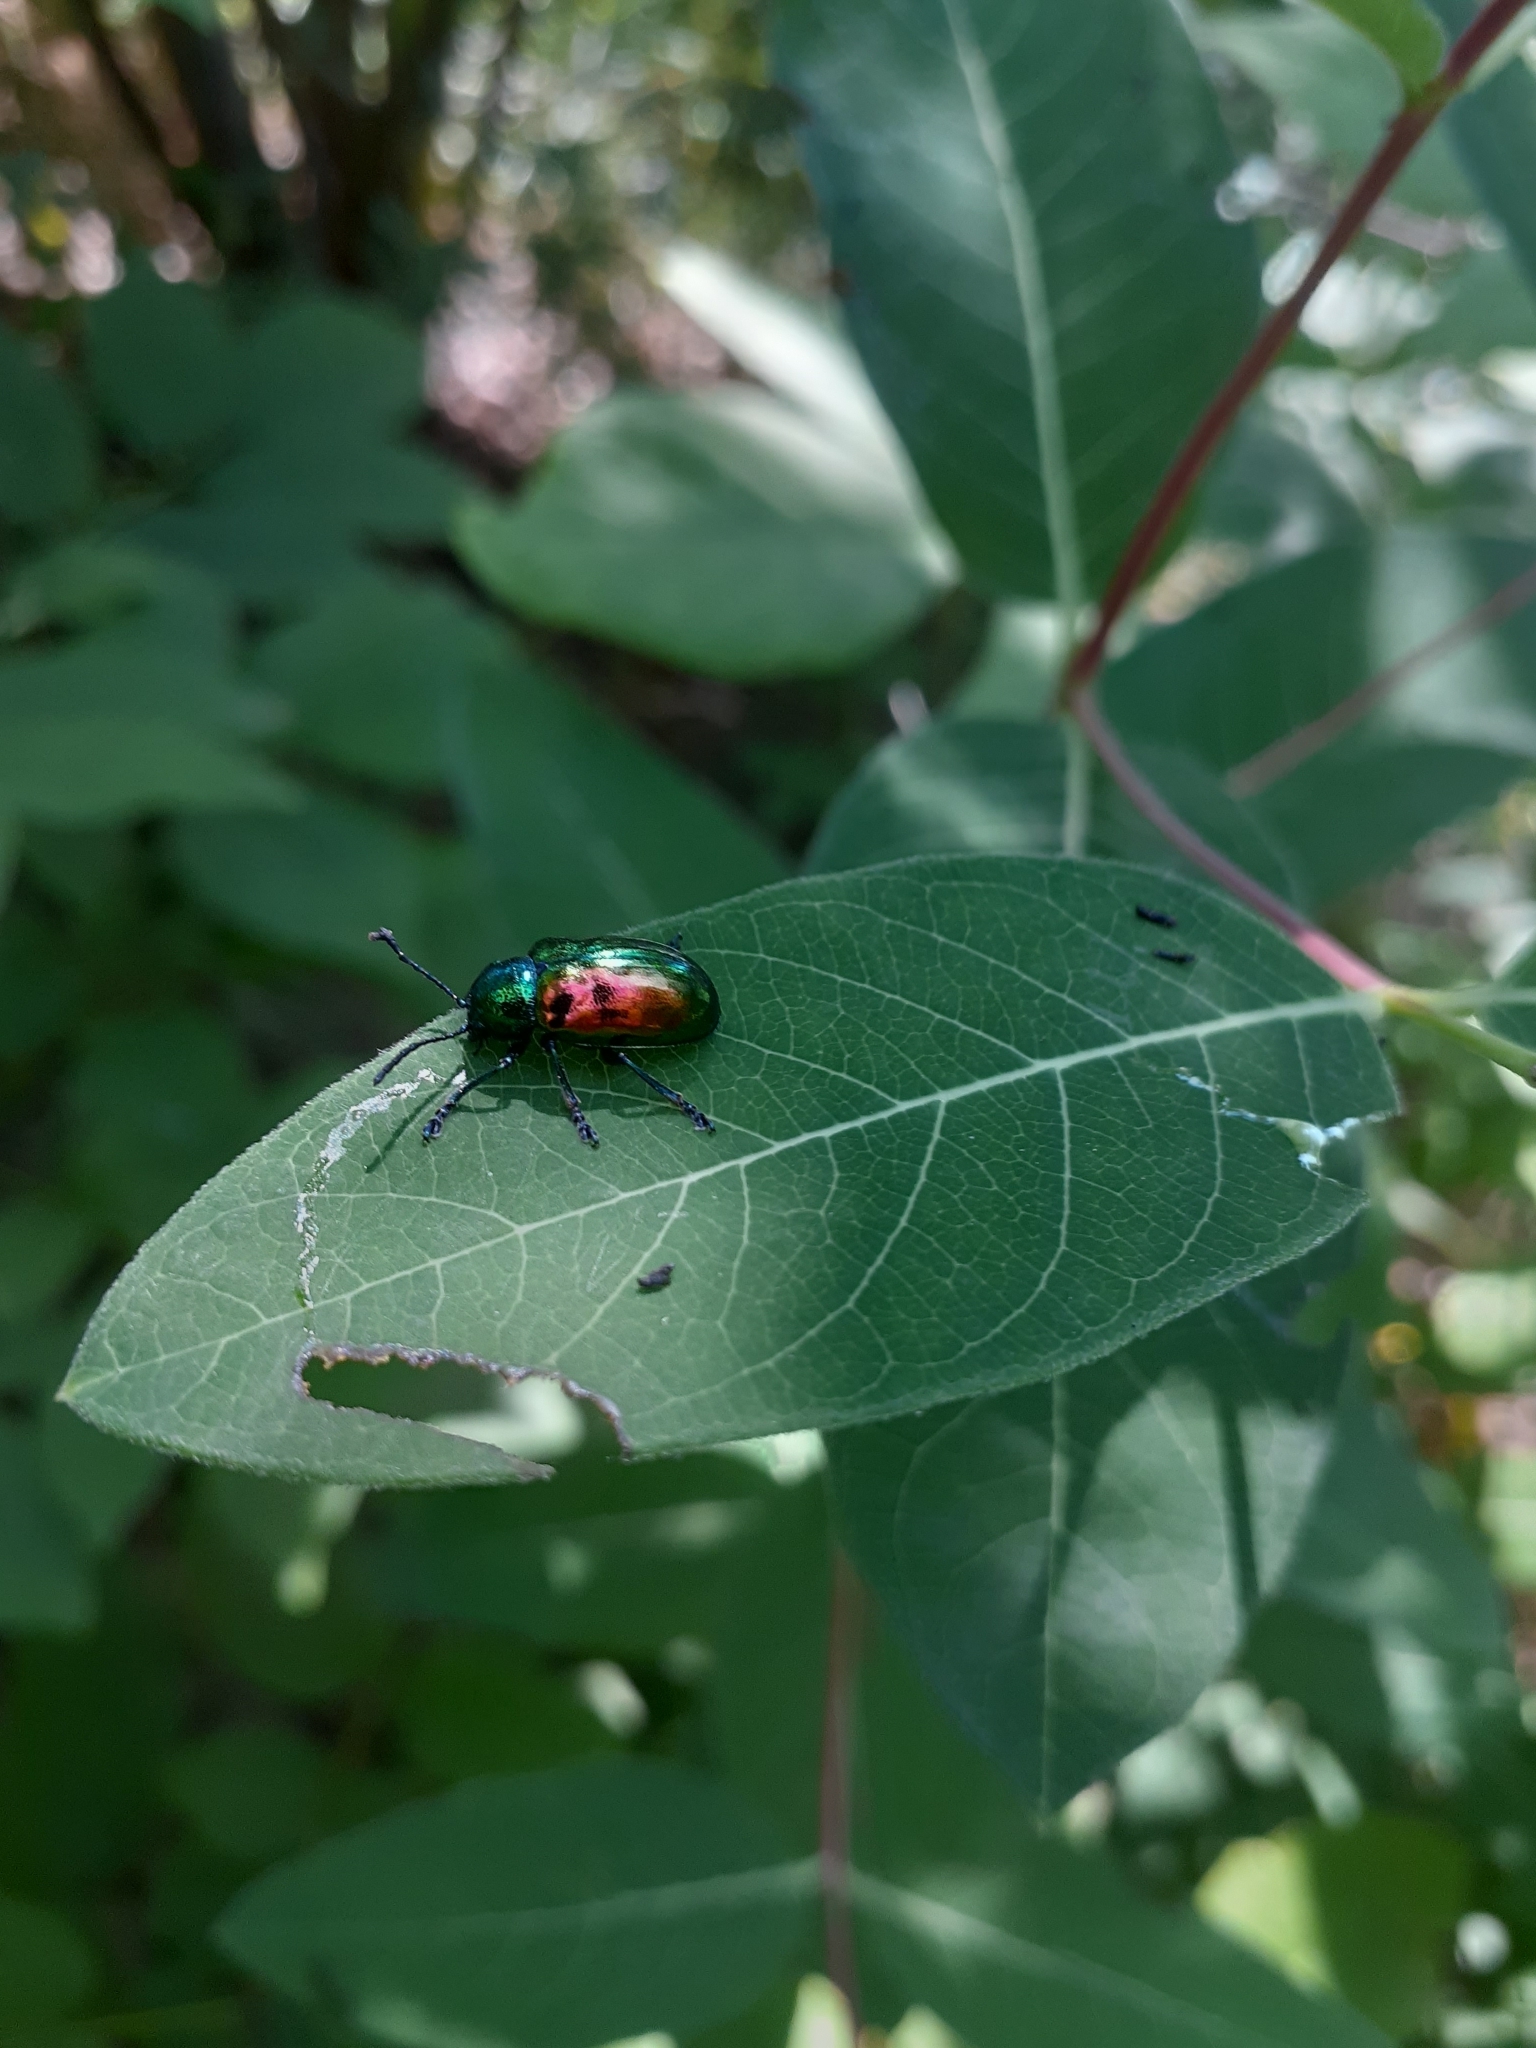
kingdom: Animalia
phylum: Arthropoda
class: Insecta
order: Coleoptera
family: Chrysomelidae
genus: Chrysochus
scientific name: Chrysochus auratus
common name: Dogbane leaf beetle
